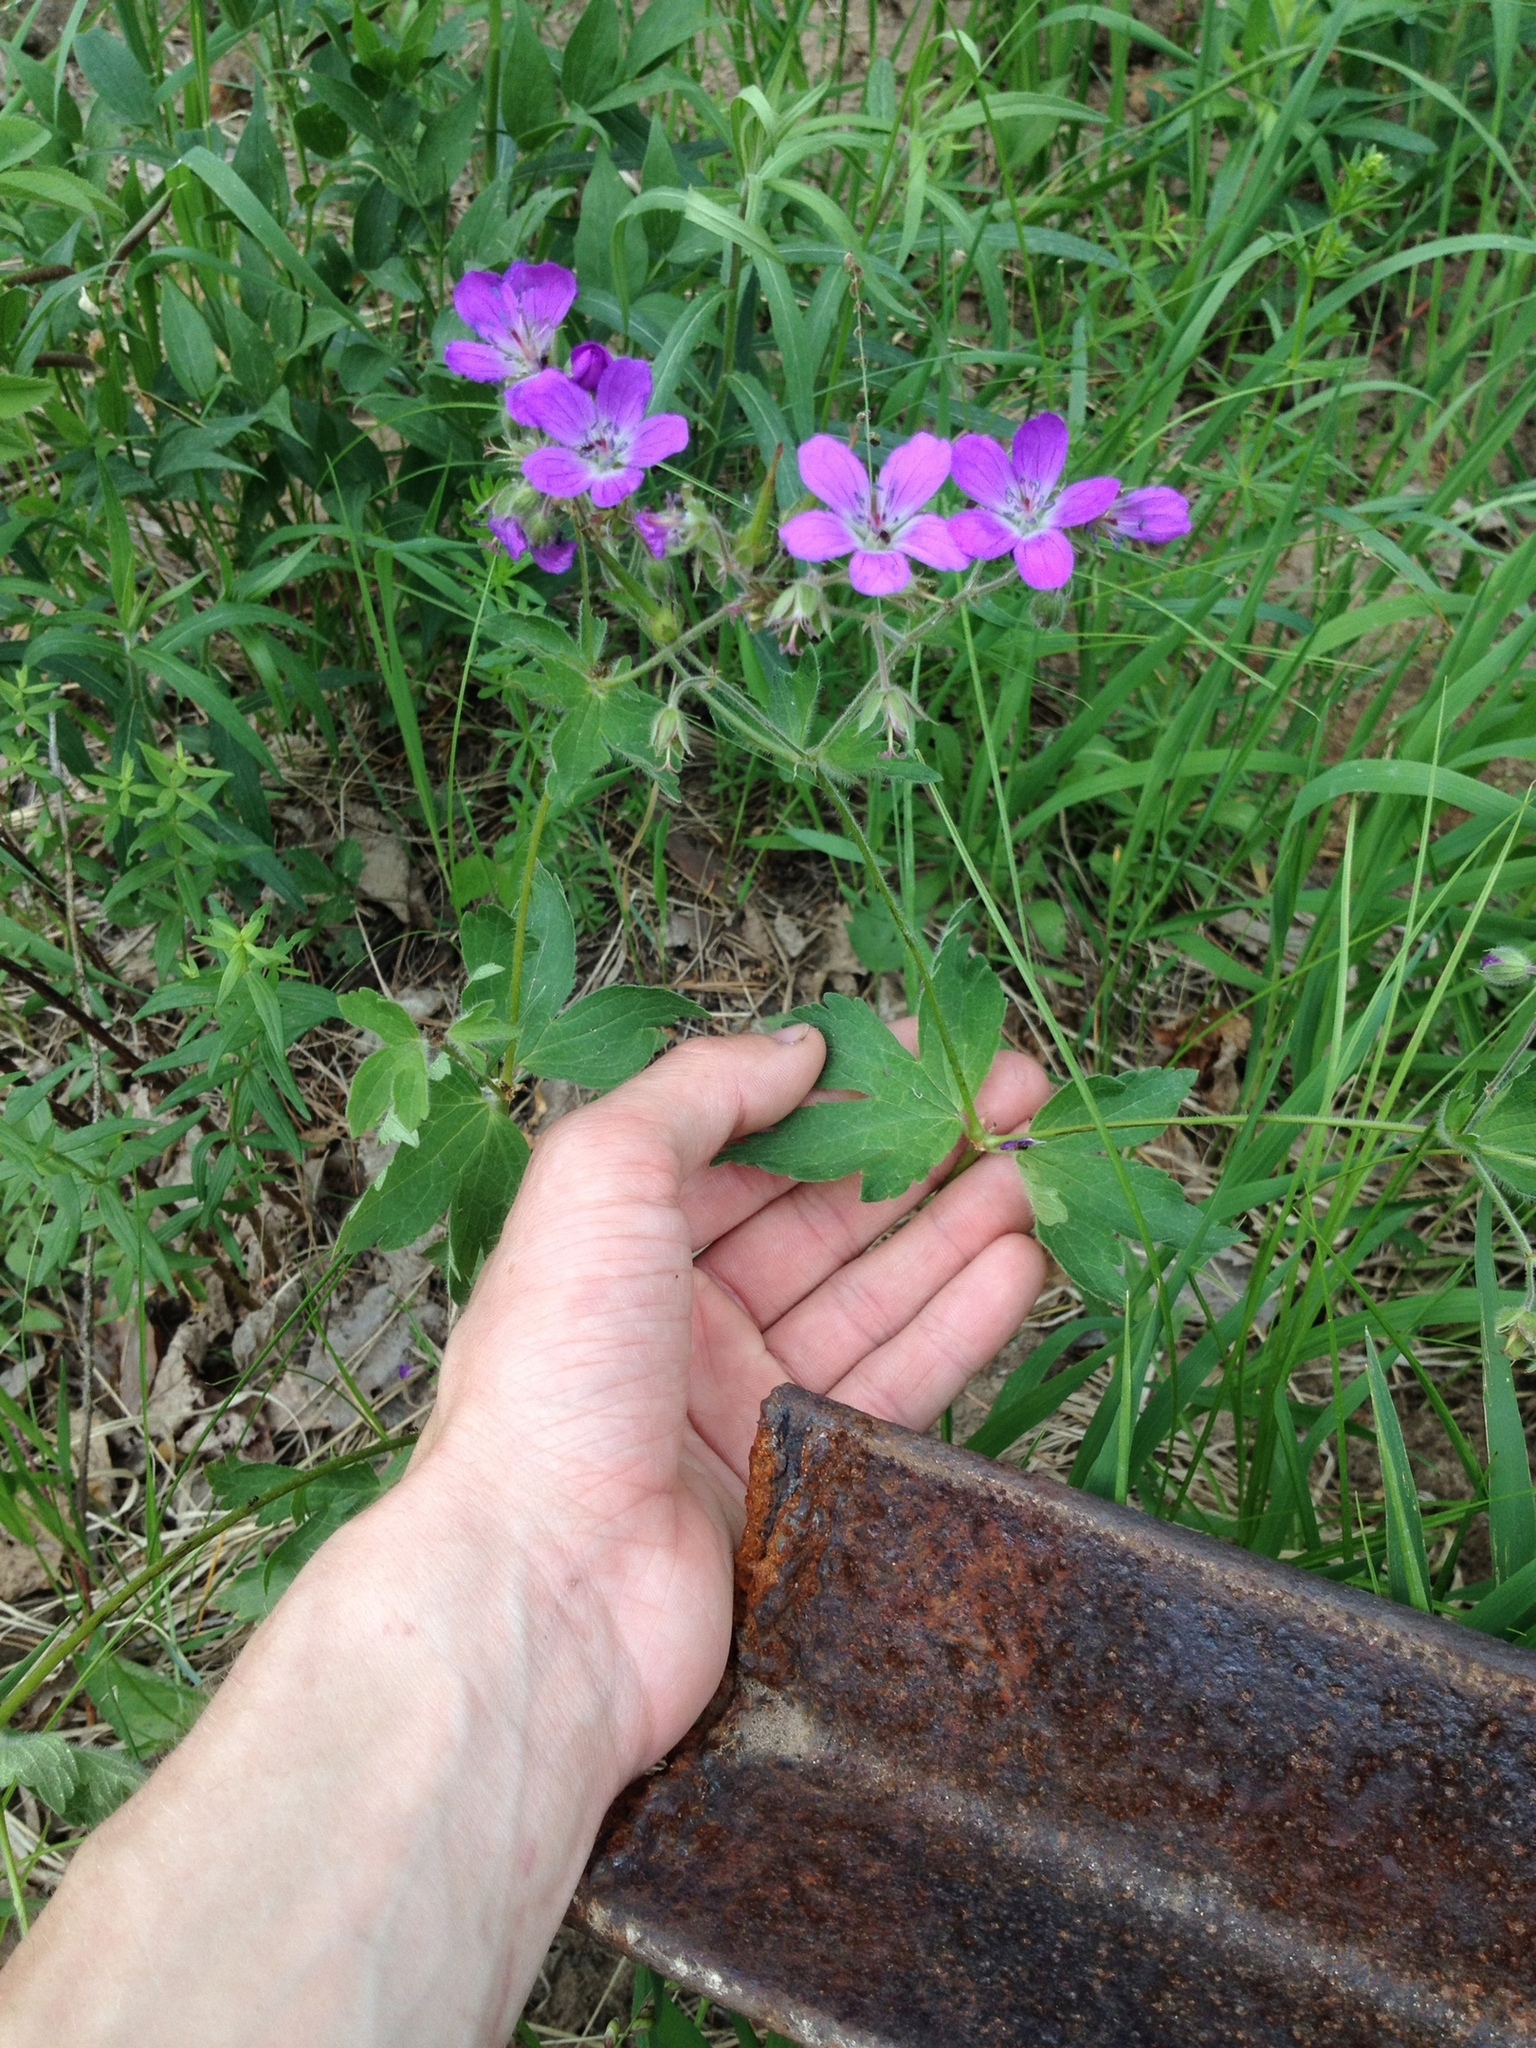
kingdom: Plantae
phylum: Tracheophyta
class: Magnoliopsida
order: Geraniales
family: Geraniaceae
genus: Geranium
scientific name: Geranium sylvaticum
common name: Wood crane's-bill
